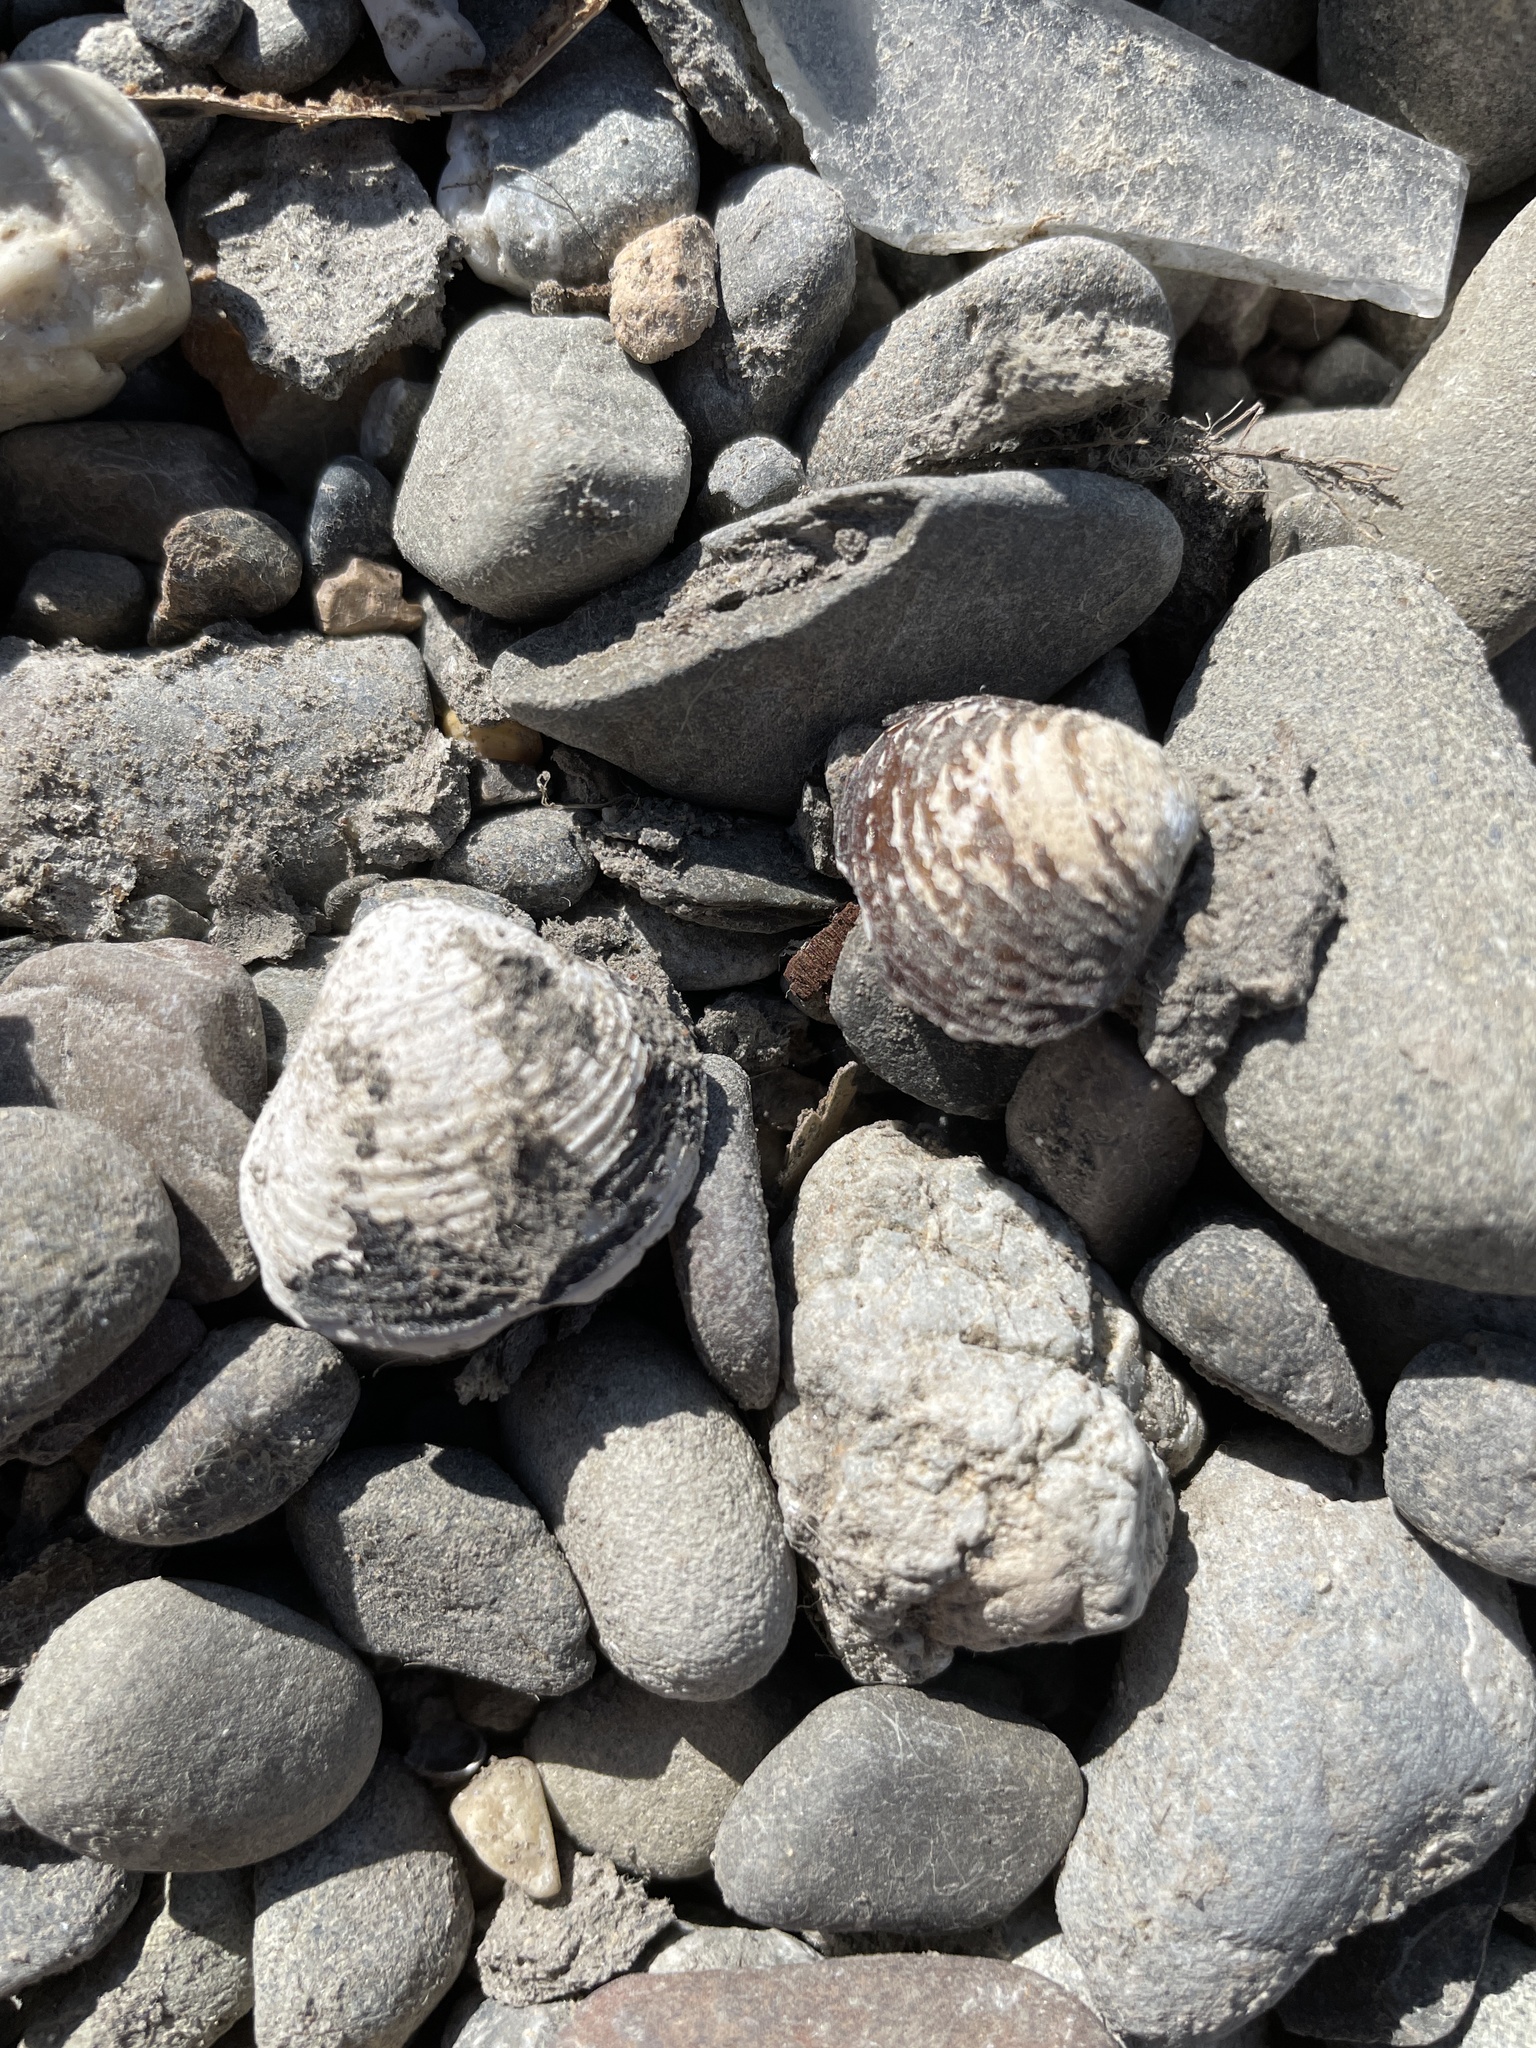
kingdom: Animalia
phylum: Mollusca
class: Bivalvia
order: Venerida
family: Cyrenidae
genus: Corbicula
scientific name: Corbicula fluminea
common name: Asian clam
